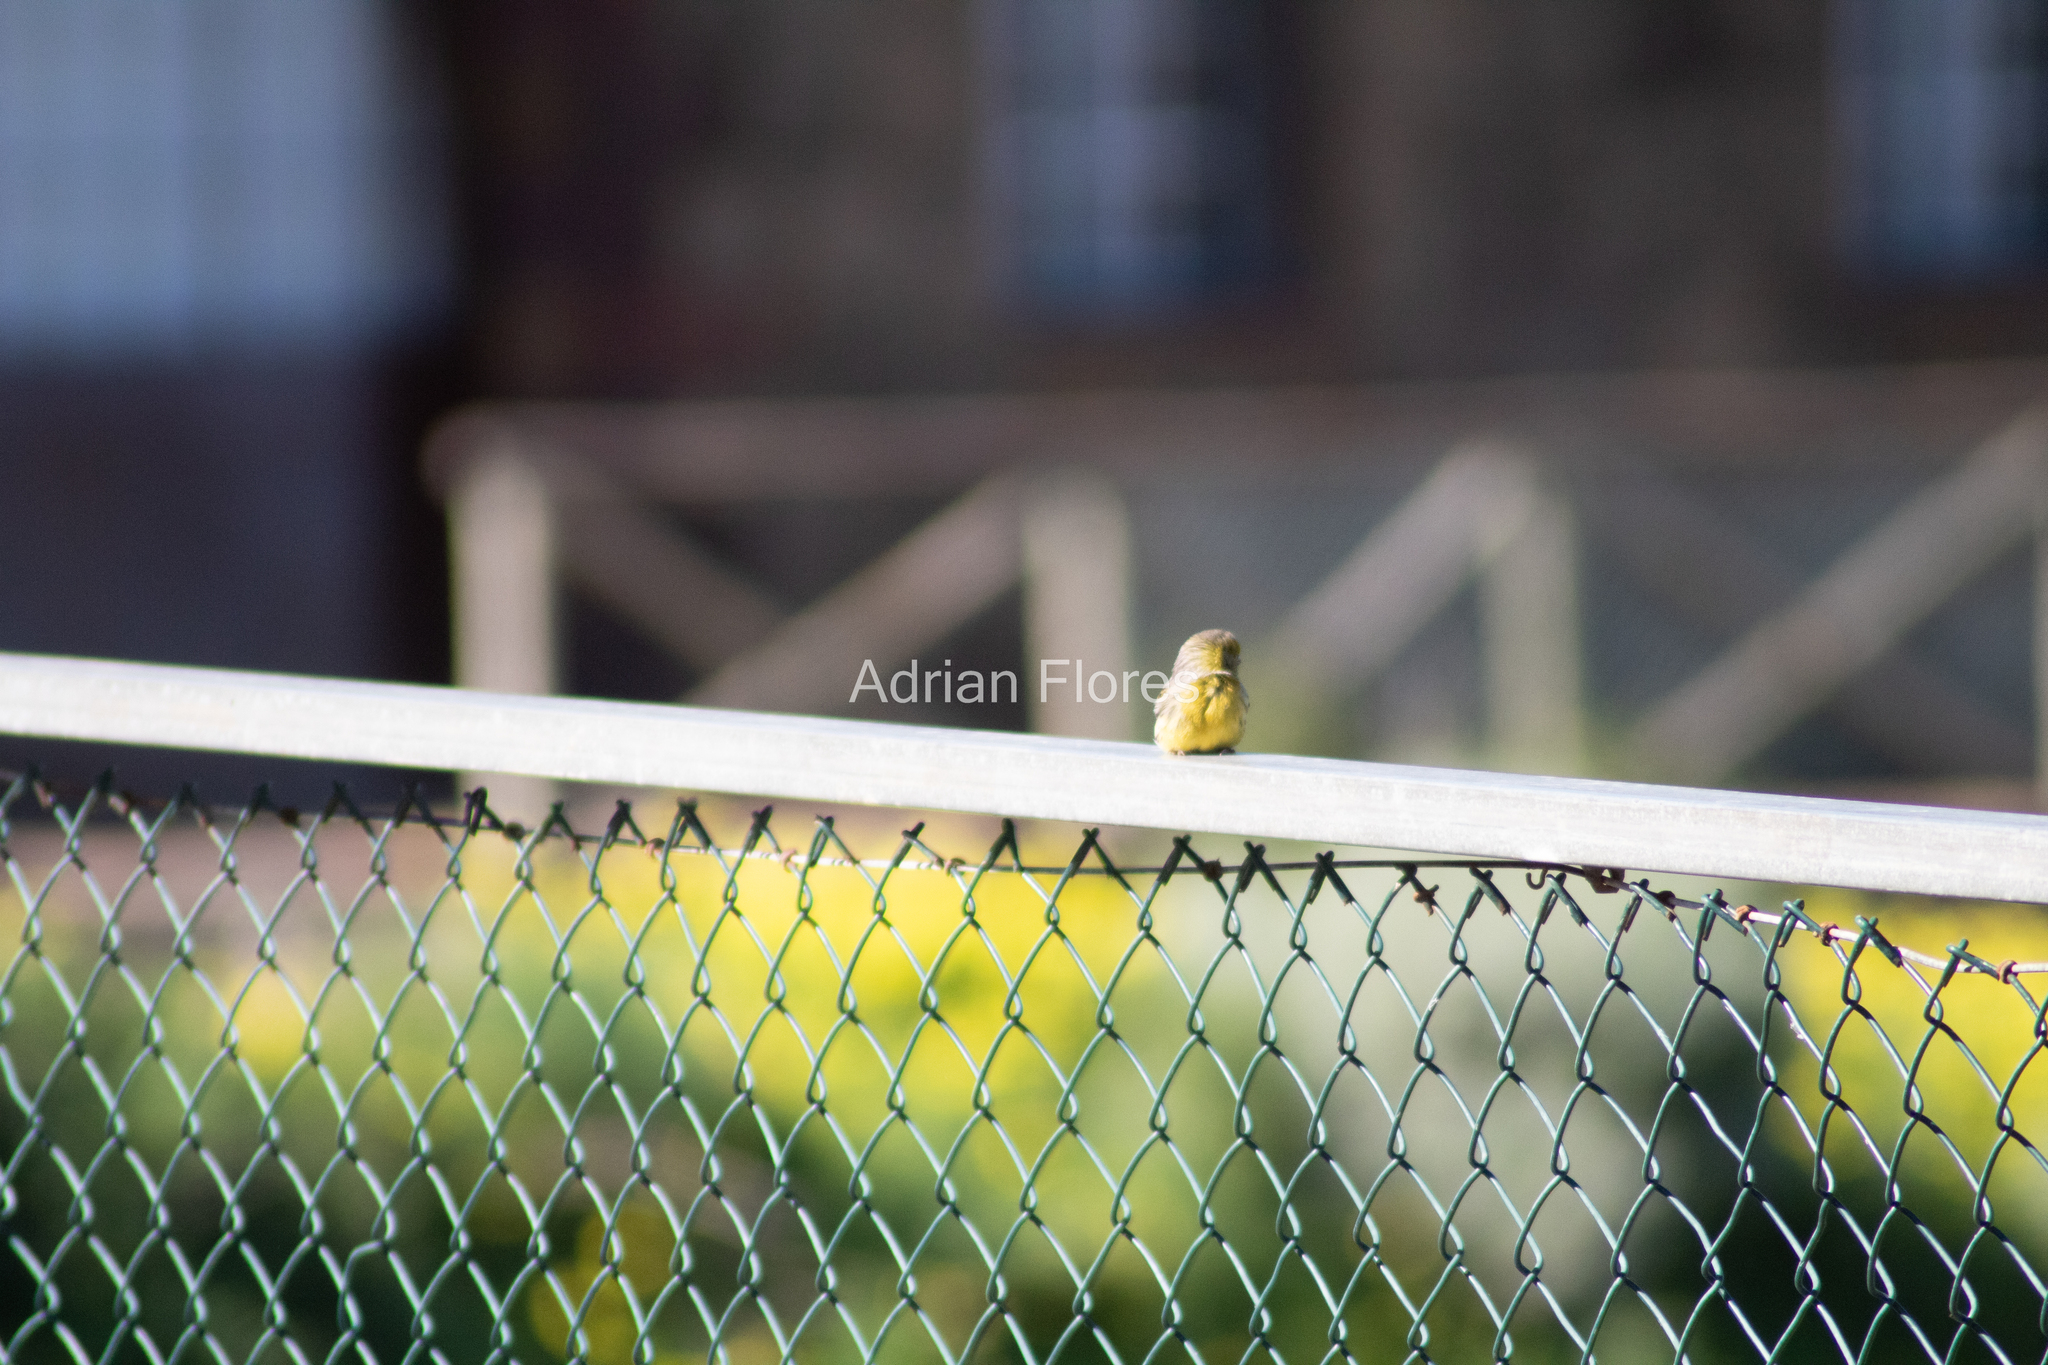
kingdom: Animalia
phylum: Chordata
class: Aves
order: Passeriformes
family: Fringillidae
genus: Serinus
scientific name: Serinus canaria
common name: Atlantic canary
